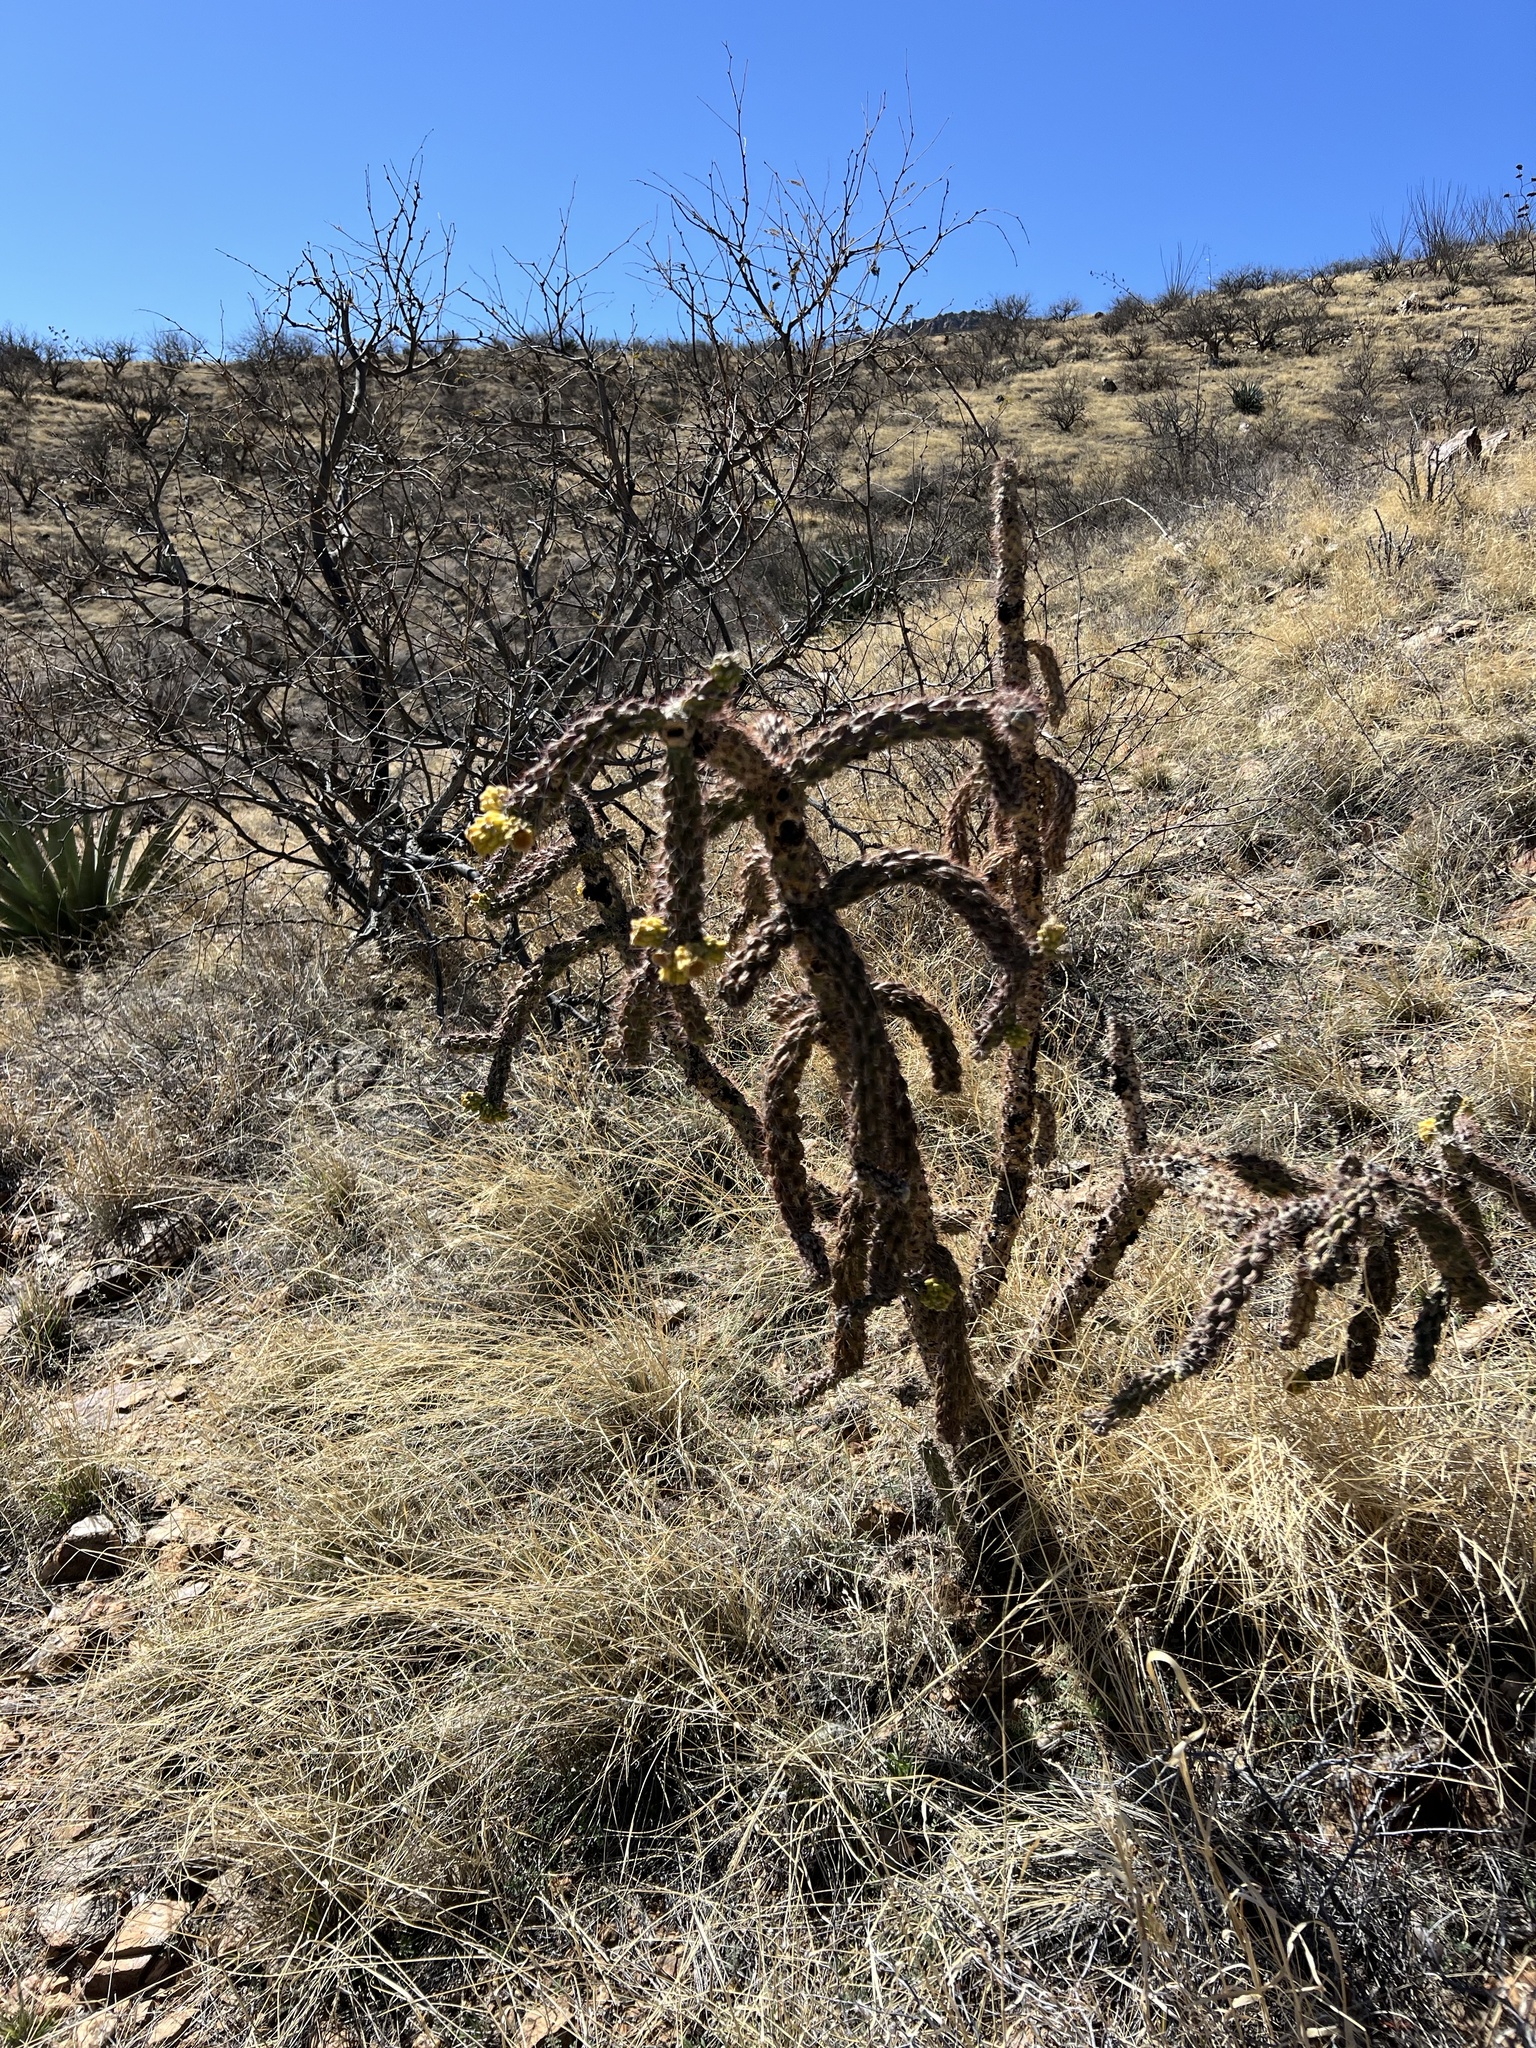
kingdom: Plantae
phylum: Tracheophyta
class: Magnoliopsida
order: Caryophyllales
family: Cactaceae
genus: Cylindropuntia
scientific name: Cylindropuntia imbricata
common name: Candelabrum cactus
